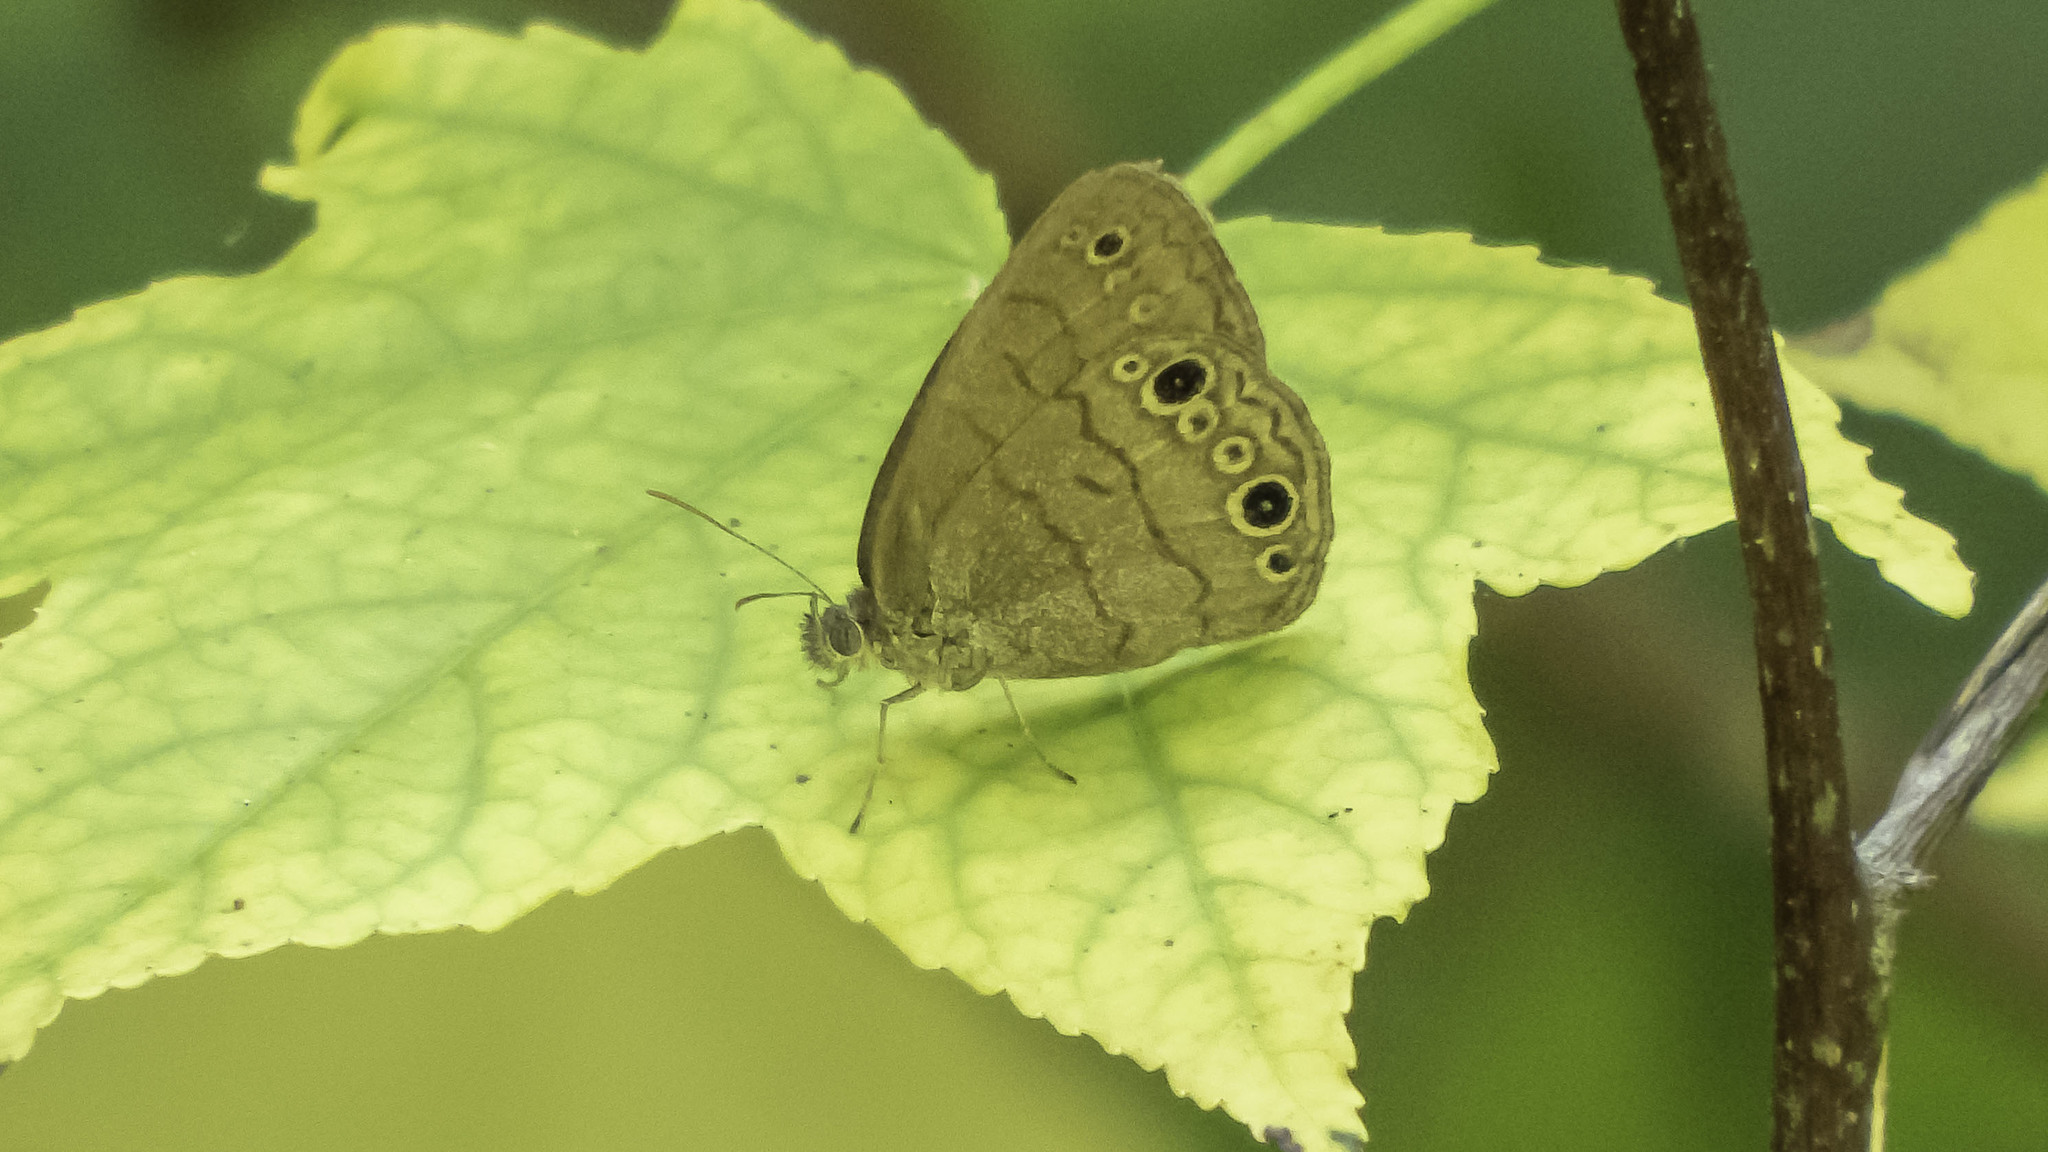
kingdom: Animalia
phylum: Arthropoda
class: Insecta
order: Lepidoptera
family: Nymphalidae
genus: Hermeuptychia
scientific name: Hermeuptychia hermes
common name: Hermes satyr
